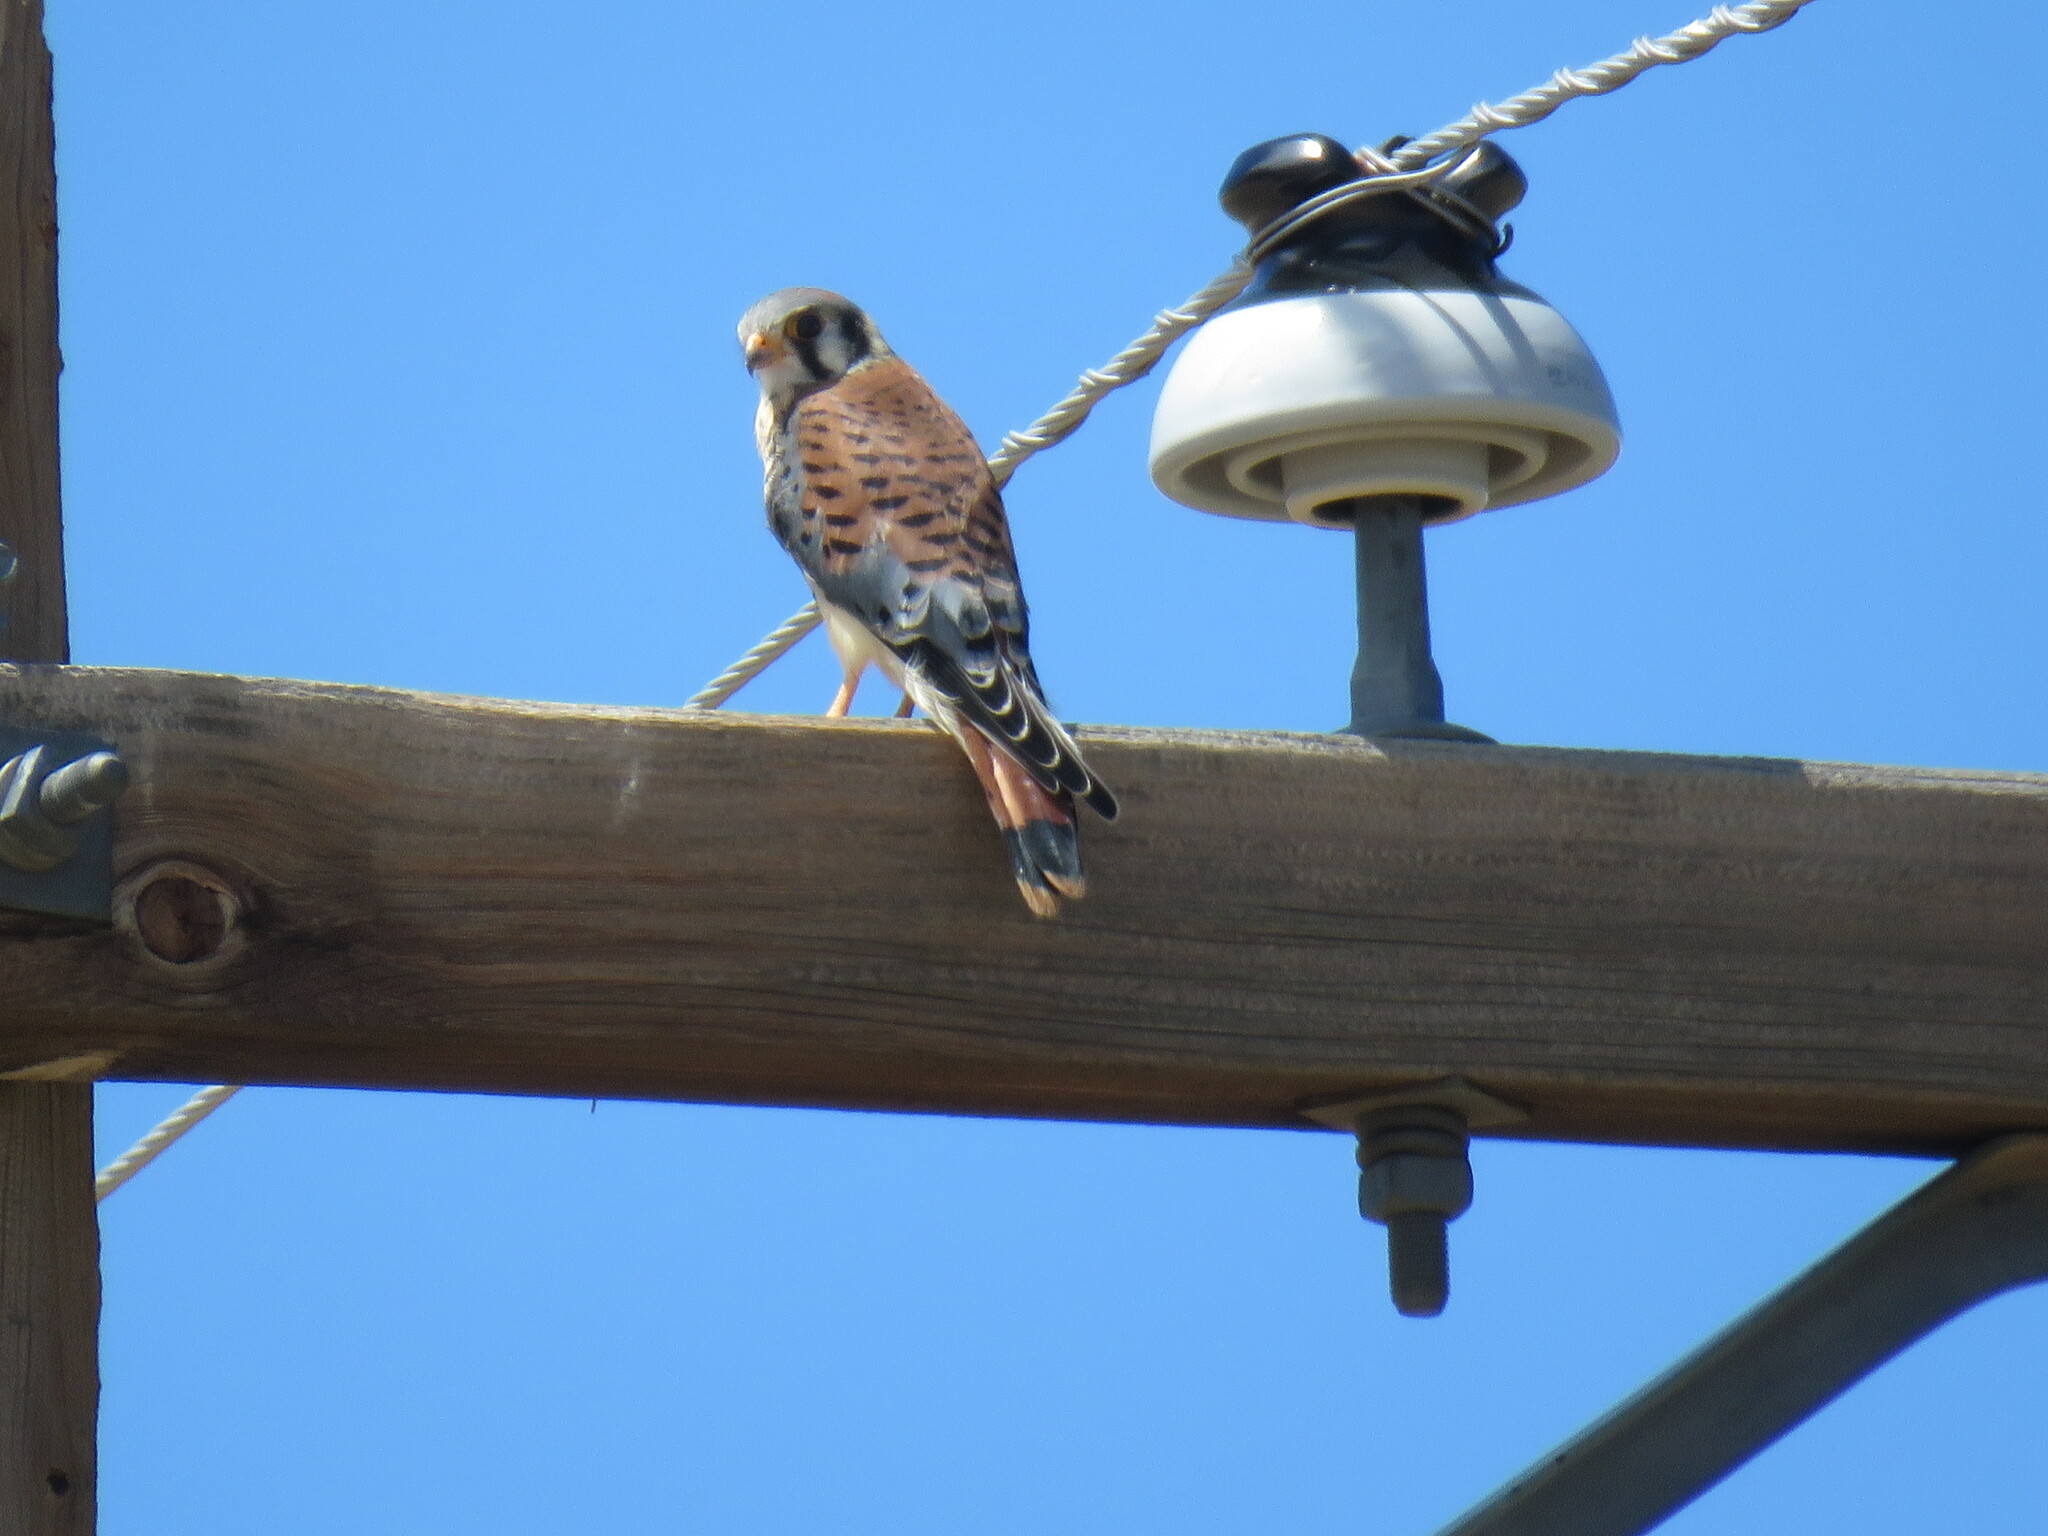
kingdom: Animalia
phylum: Chordata
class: Aves
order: Falconiformes
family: Falconidae
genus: Falco
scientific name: Falco sparverius
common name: American kestrel
